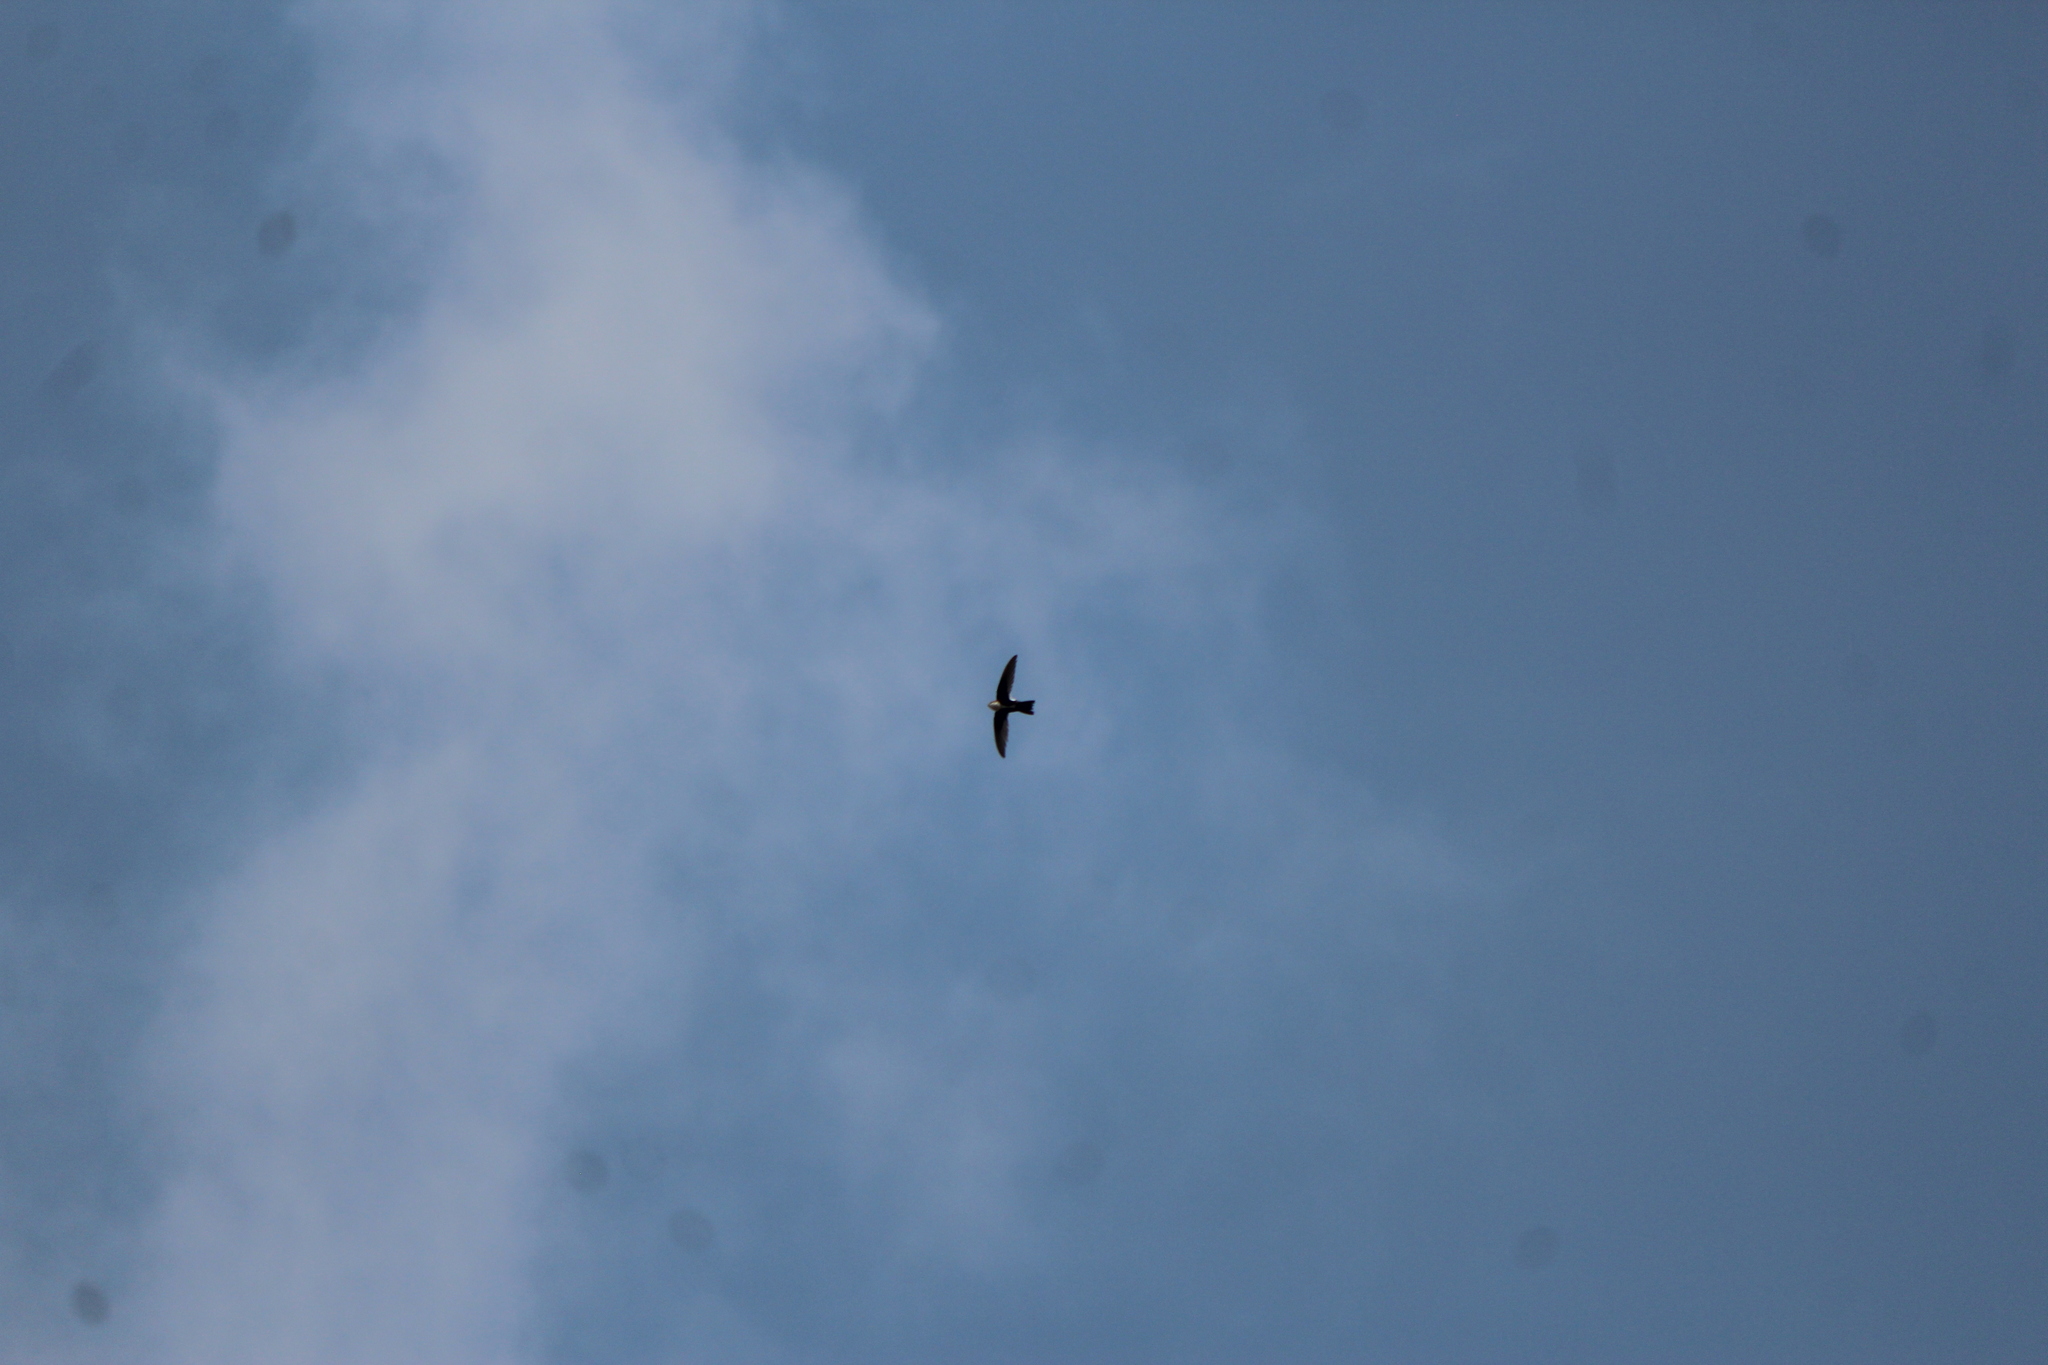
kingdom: Animalia
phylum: Chordata
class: Aves
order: Apodiformes
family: Apodidae
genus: Aeronautes
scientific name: Aeronautes saxatalis
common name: White-throated swift
